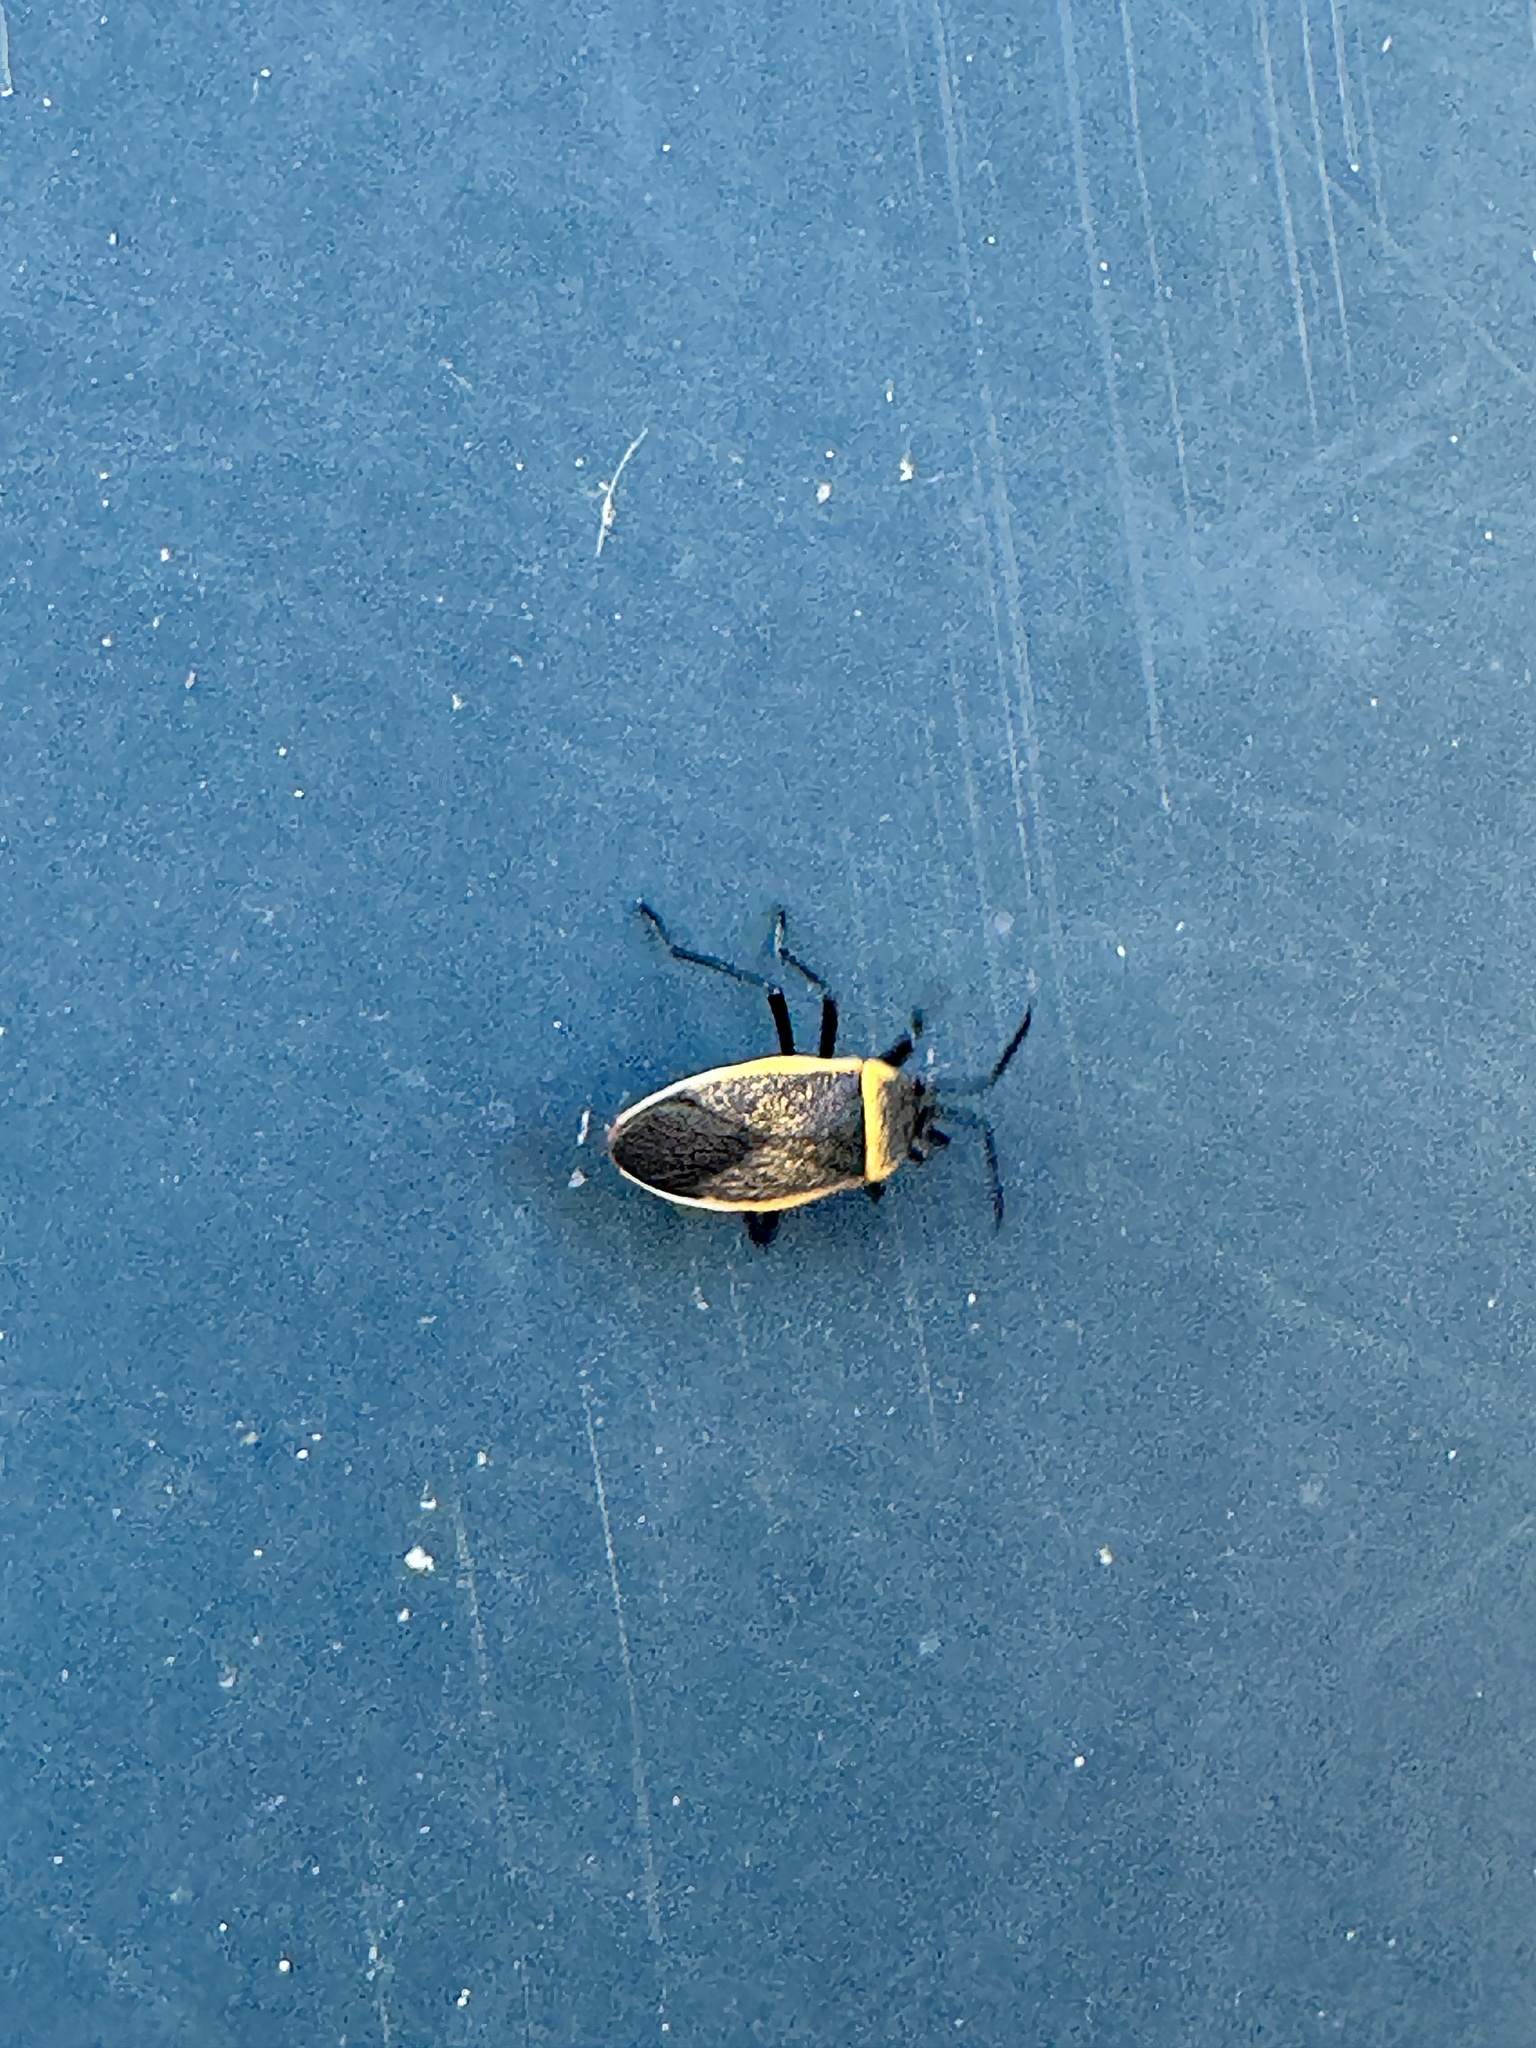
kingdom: Animalia
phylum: Arthropoda
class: Insecta
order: Hemiptera
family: Largidae
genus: Largus
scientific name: Largus californicus
